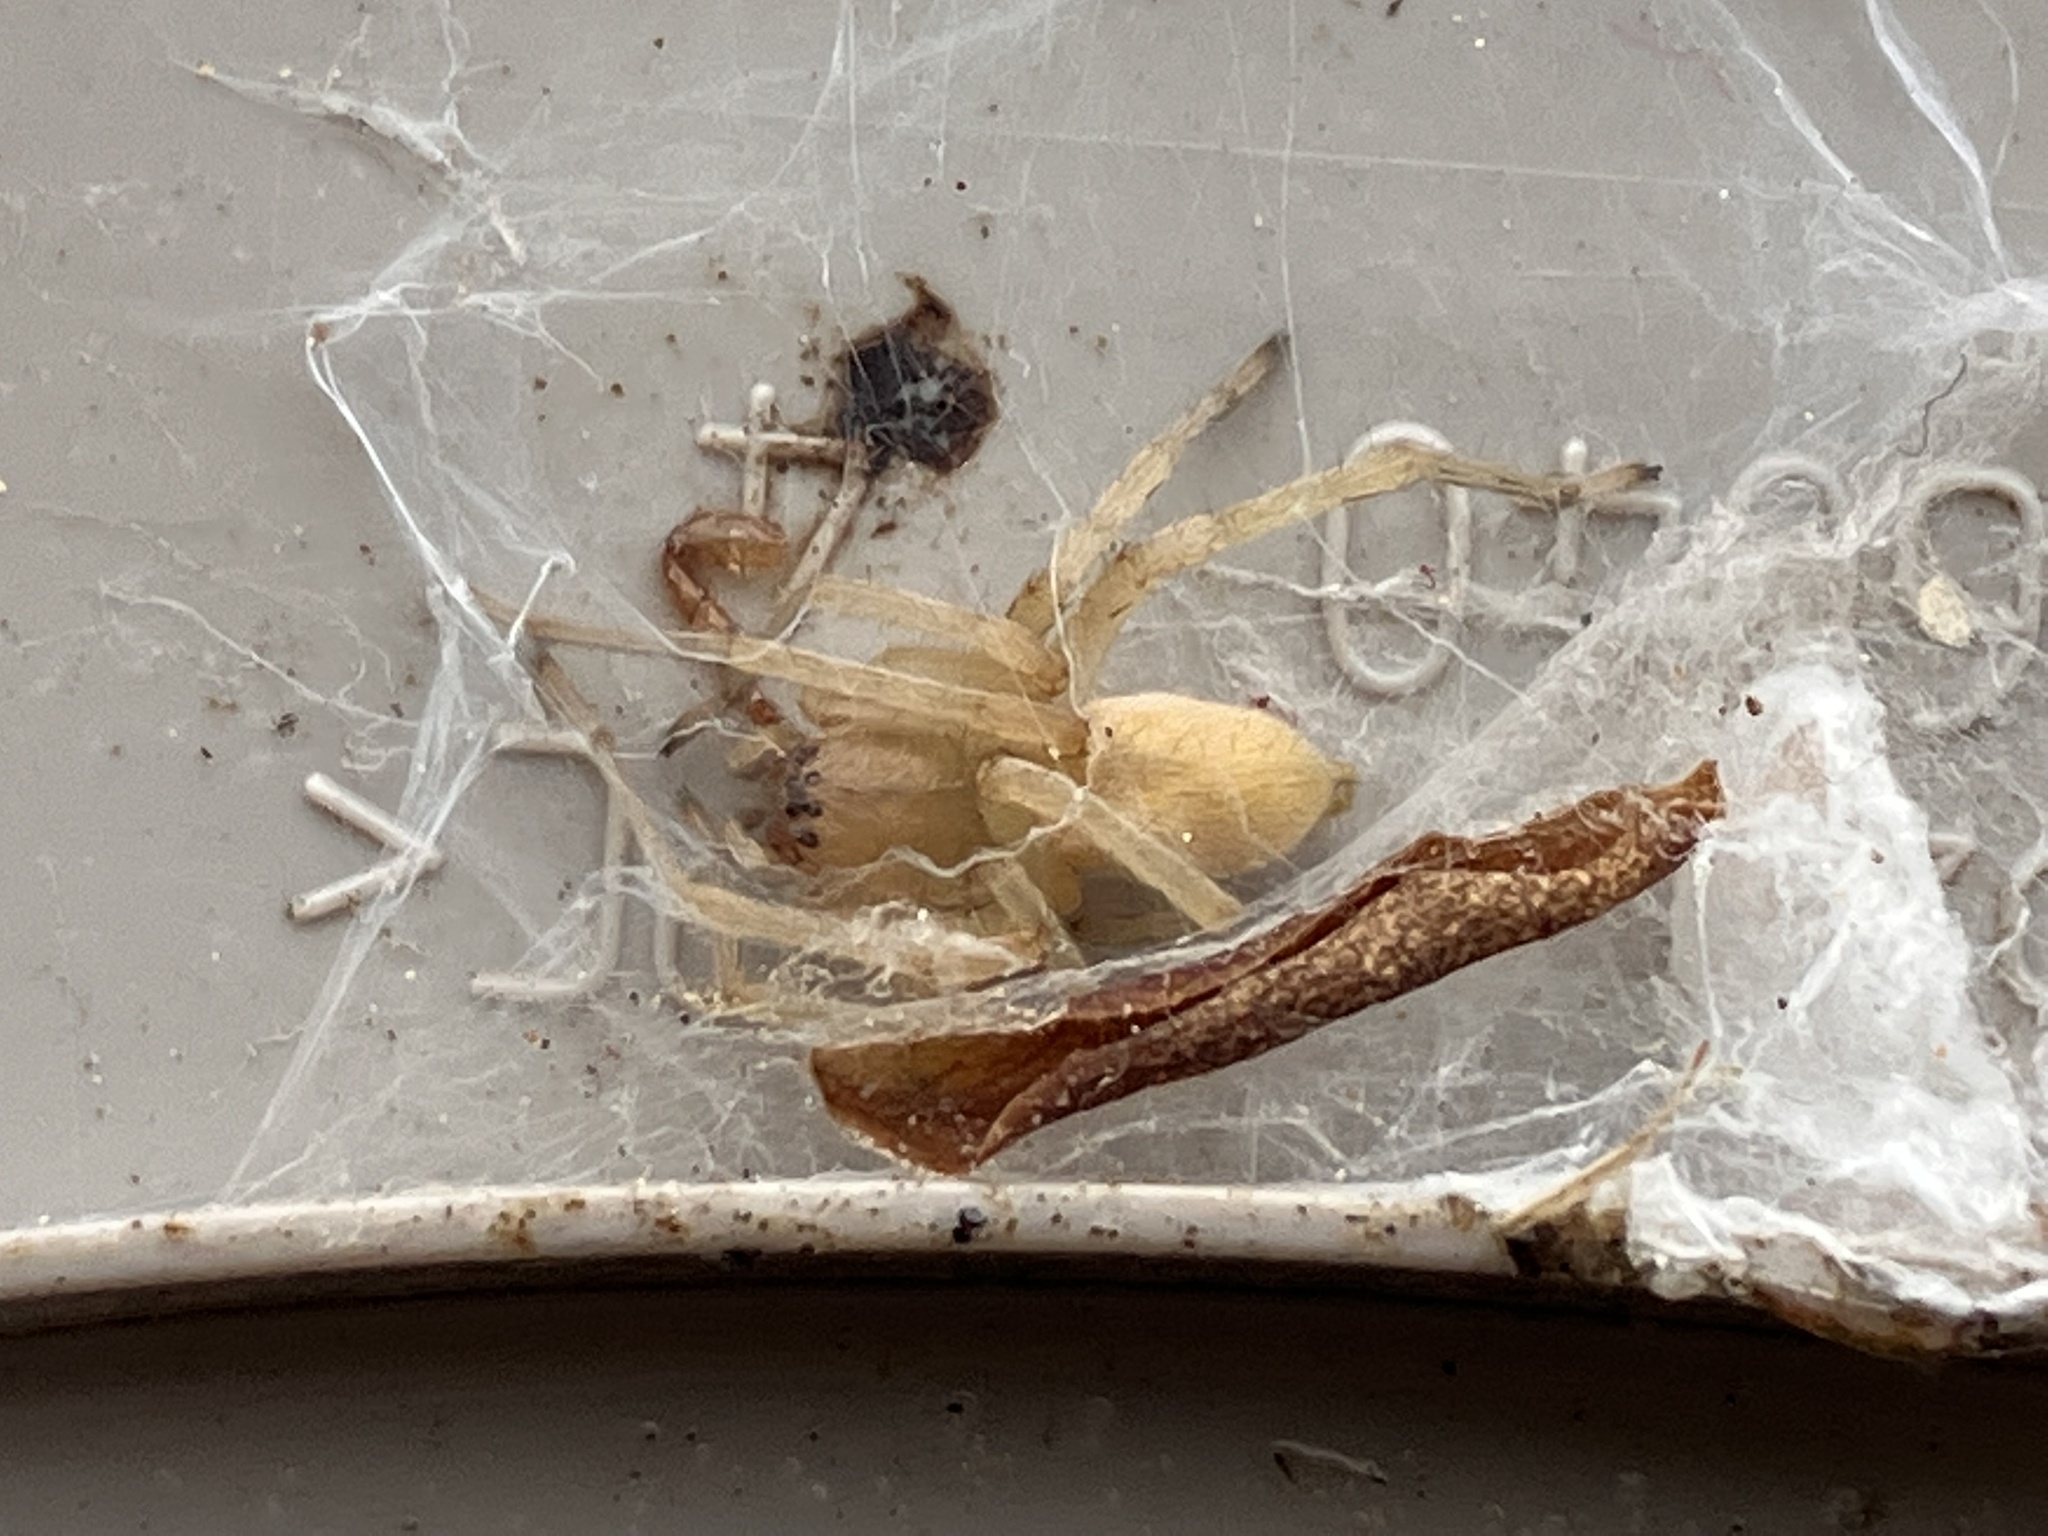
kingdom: Animalia
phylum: Arthropoda
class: Arachnida
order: Araneae
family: Cheiracanthiidae
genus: Cheiracanthium
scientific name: Cheiracanthium mildei
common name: Northern yellow sac spider
